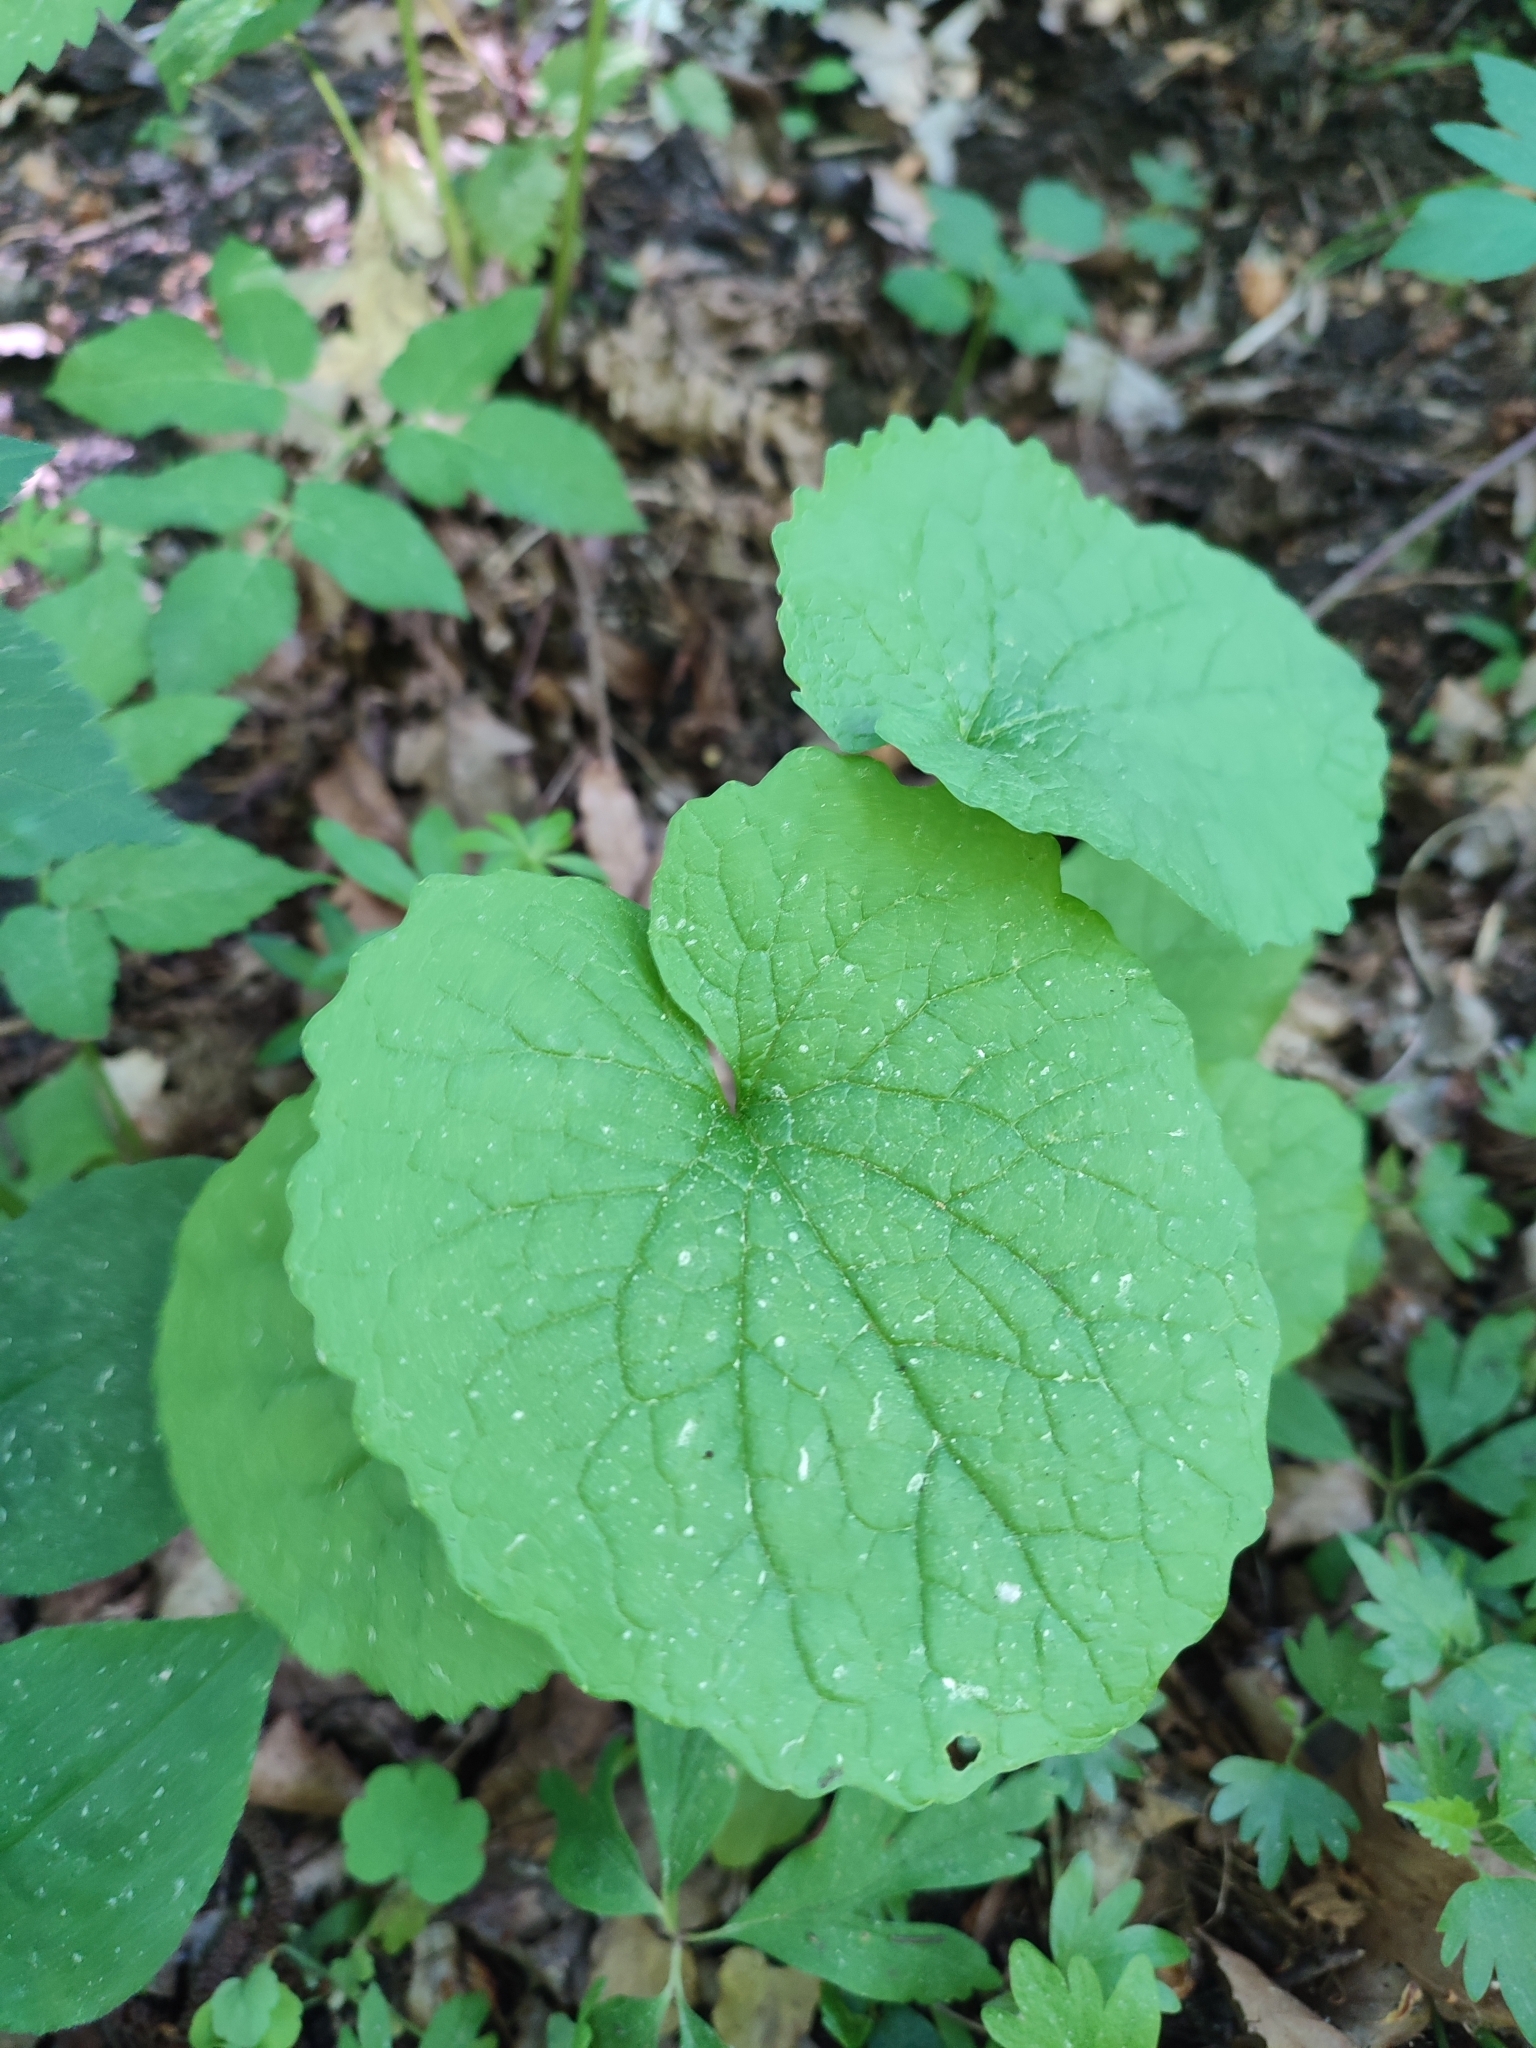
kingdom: Plantae
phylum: Tracheophyta
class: Magnoliopsida
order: Brassicales
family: Brassicaceae
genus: Alliaria
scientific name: Alliaria petiolata
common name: Garlic mustard
